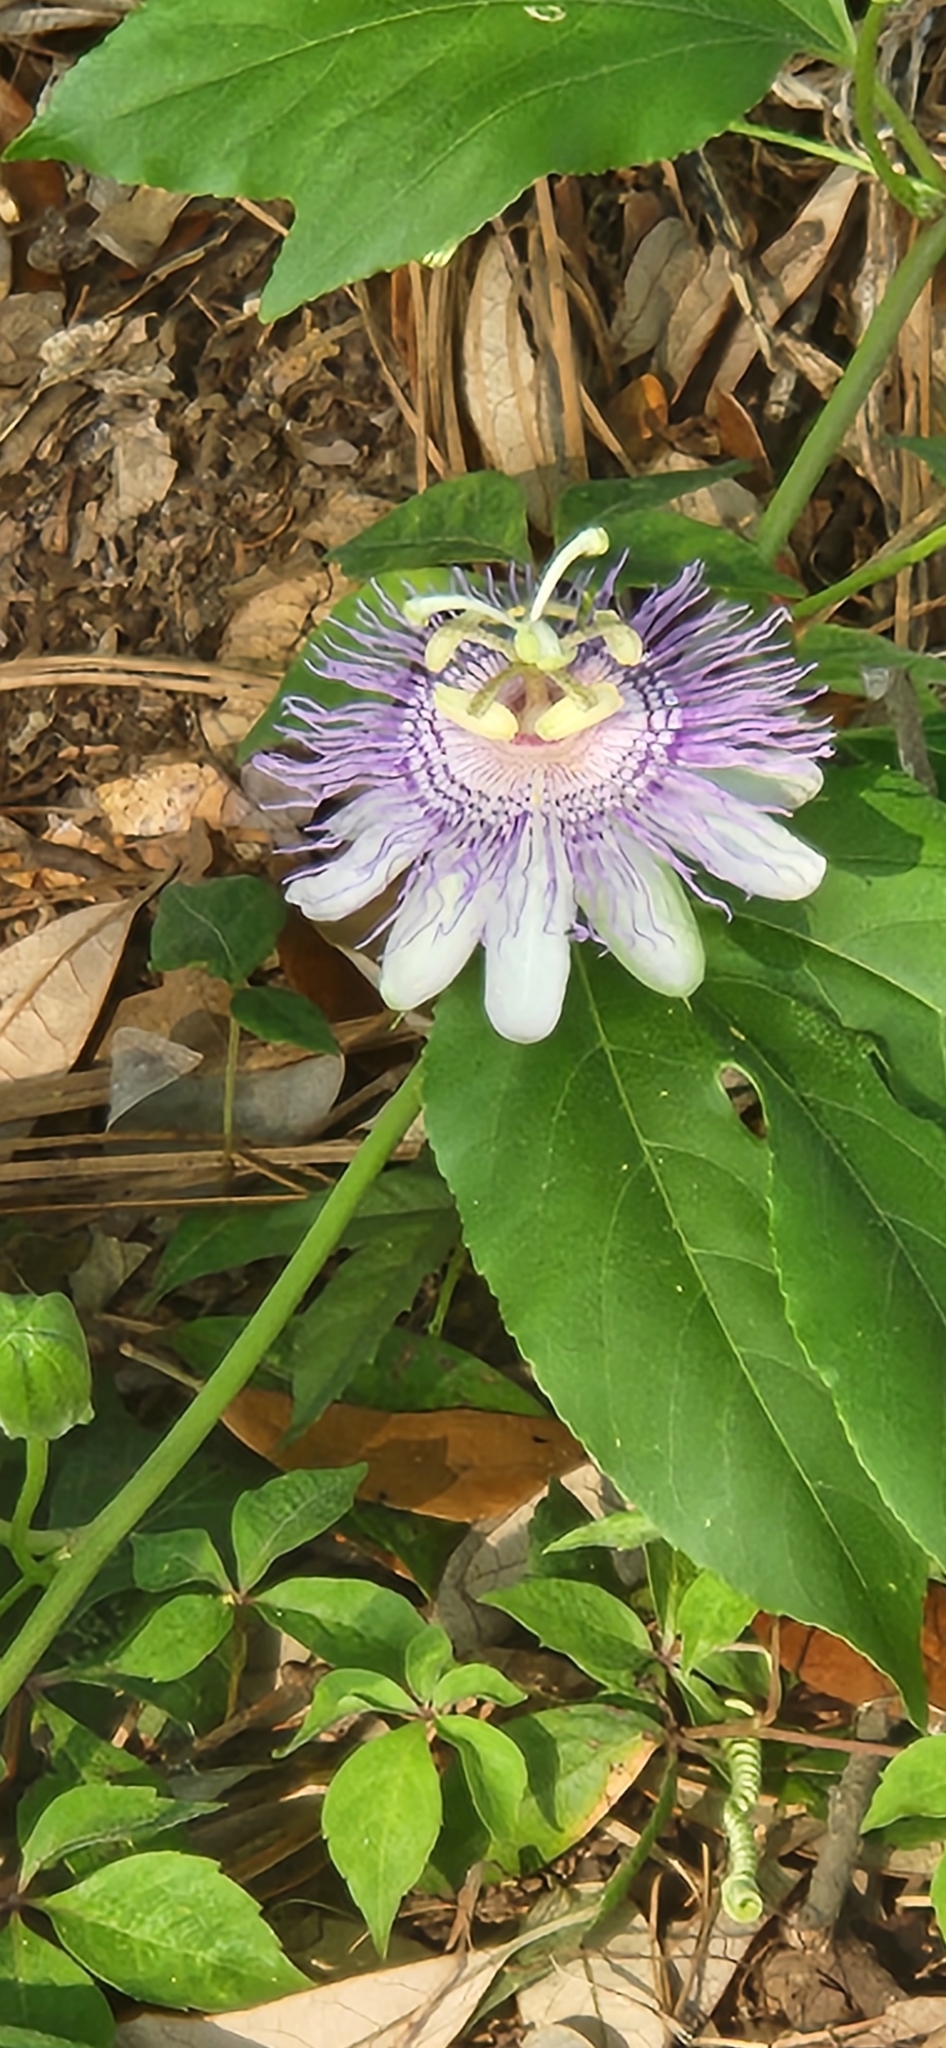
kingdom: Plantae
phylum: Tracheophyta
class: Magnoliopsida
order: Malpighiales
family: Passifloraceae
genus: Passiflora
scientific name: Passiflora incarnata
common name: Apricot-vine
